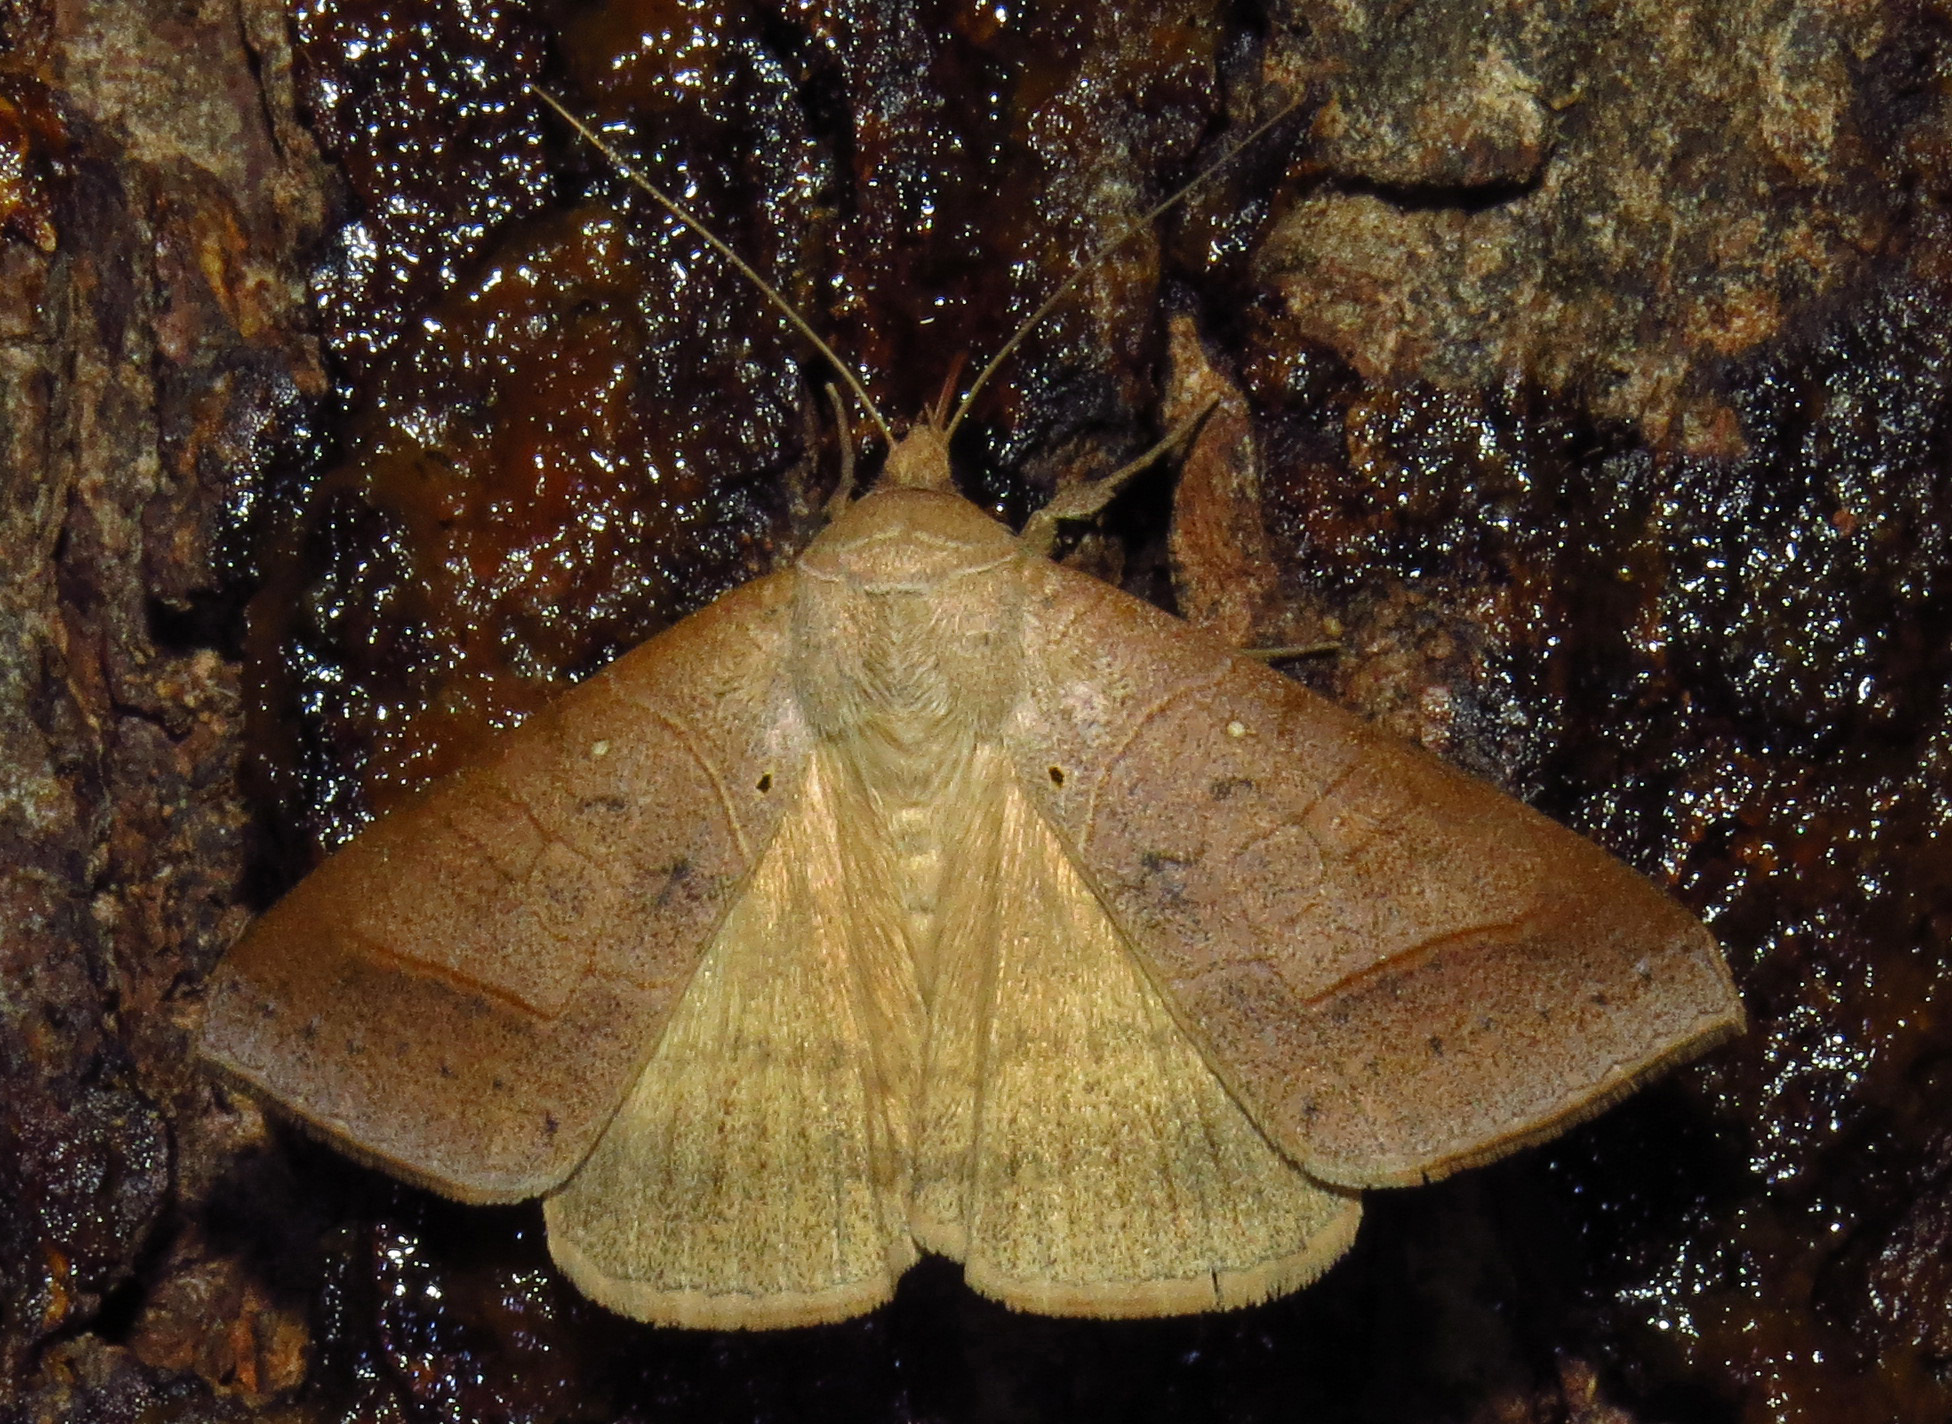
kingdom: Animalia
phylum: Arthropoda
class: Insecta
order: Lepidoptera
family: Erebidae
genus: Mocis
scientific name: Mocis marcida
